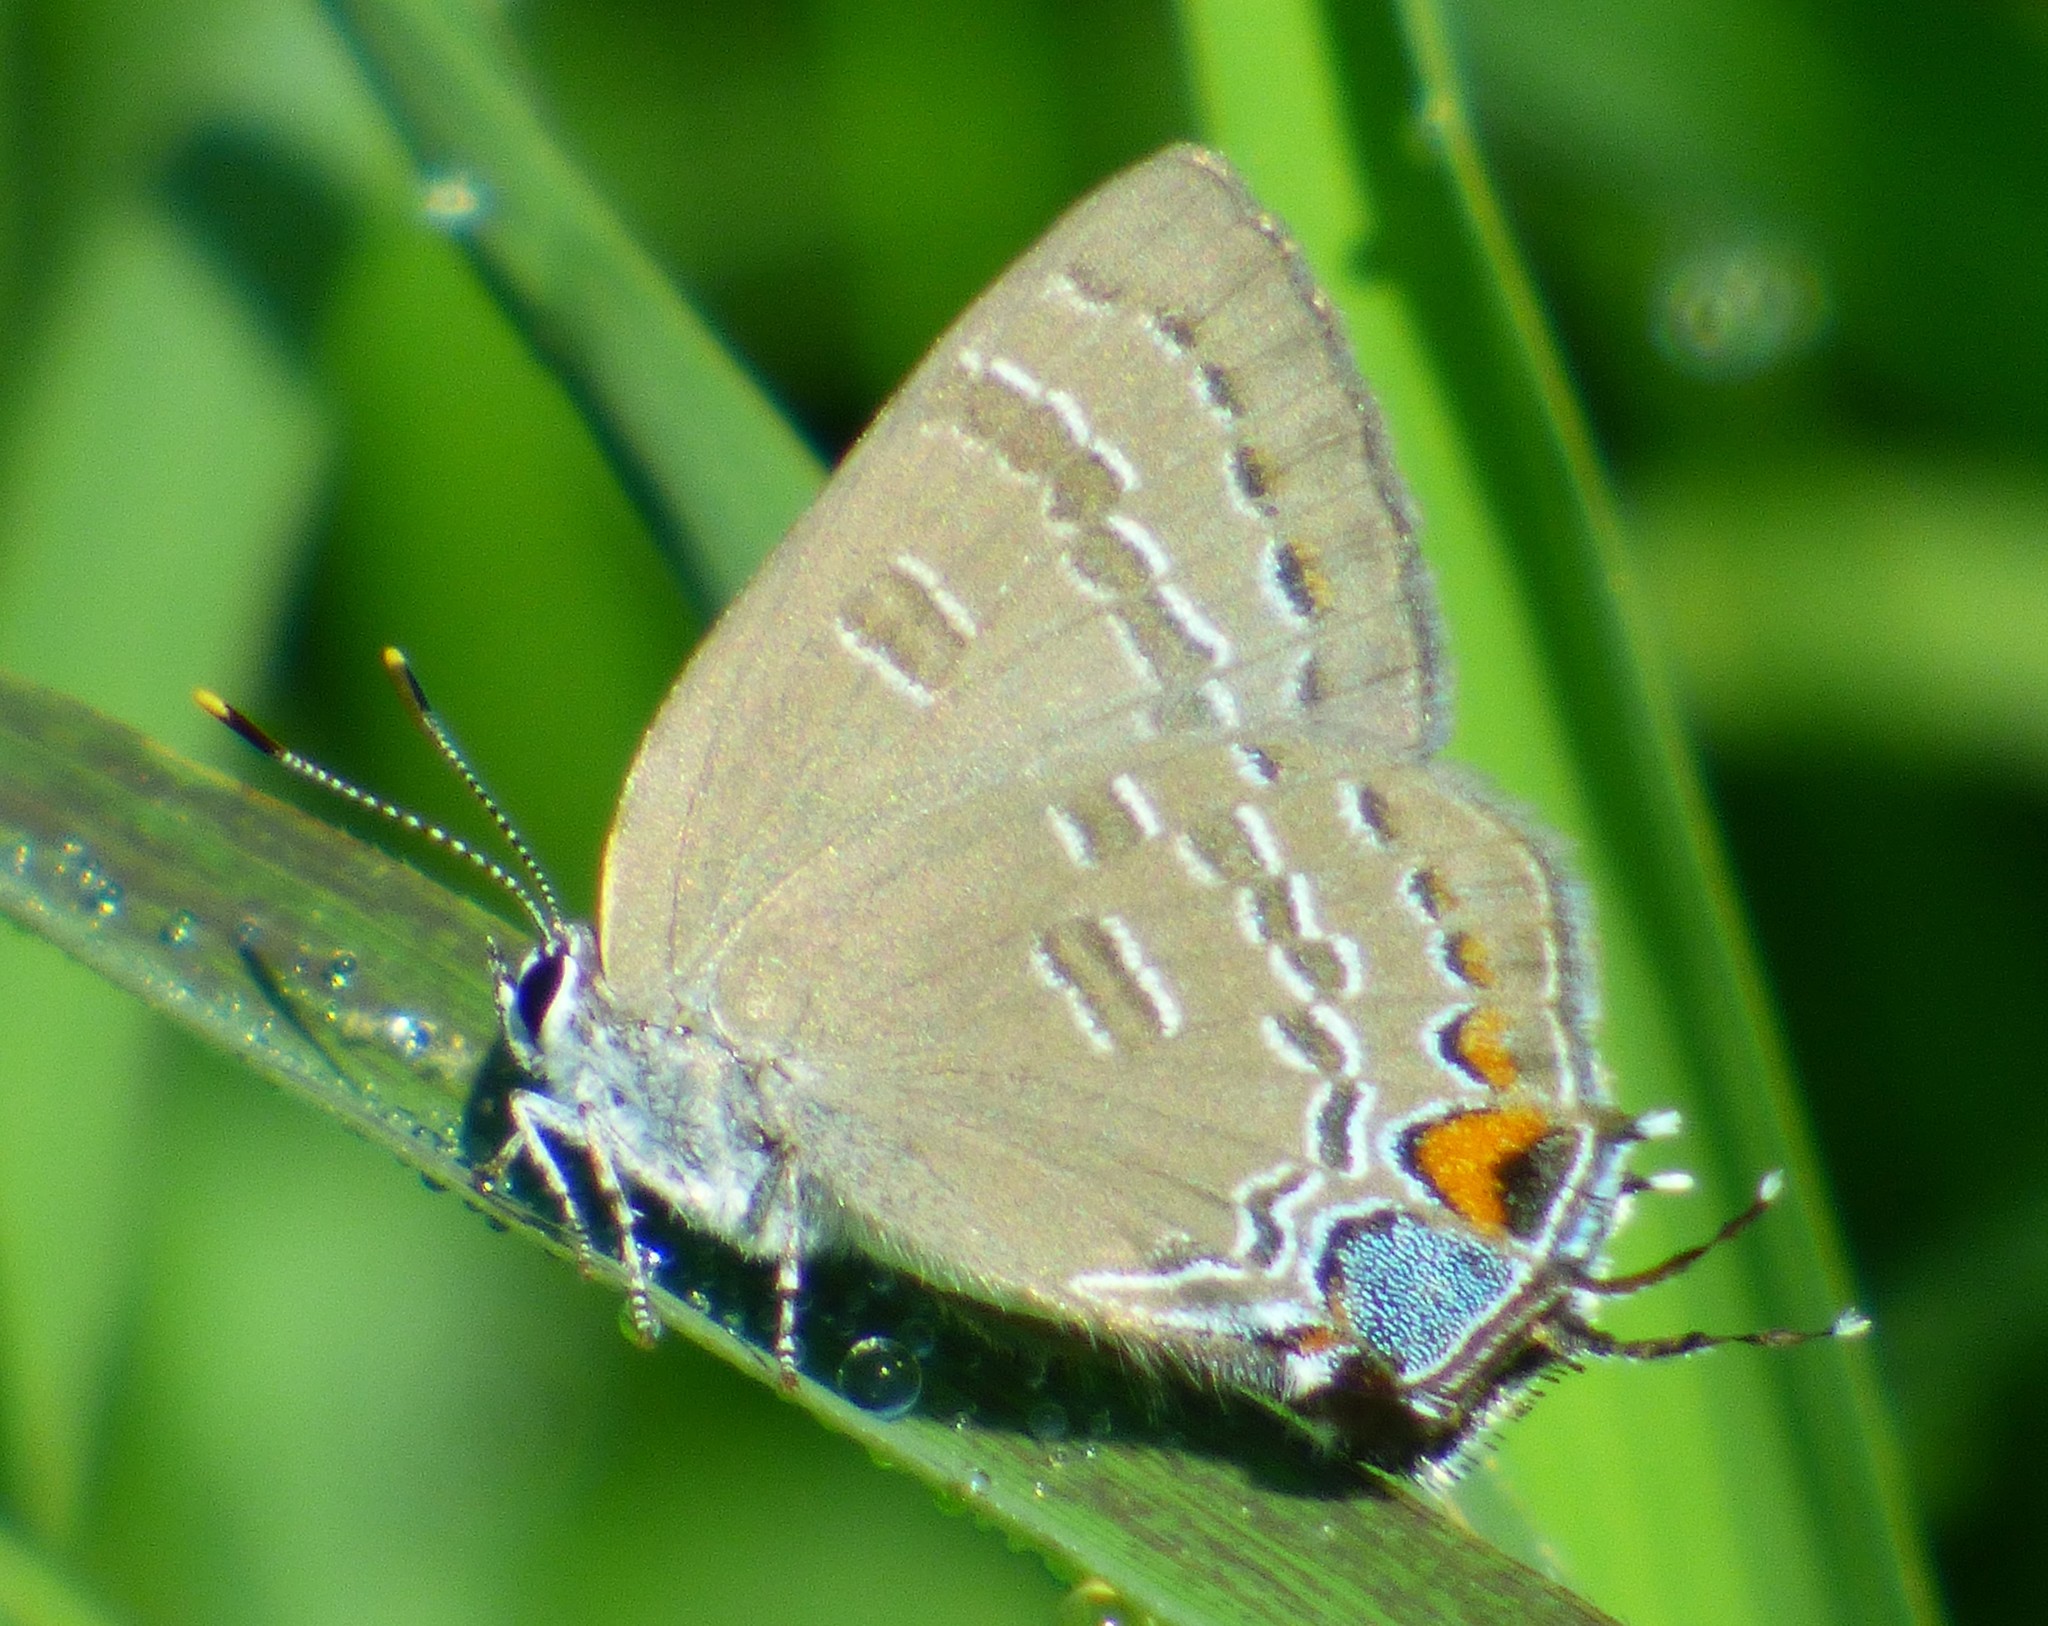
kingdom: Animalia
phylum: Arthropoda
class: Insecta
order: Lepidoptera
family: Lycaenidae
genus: Satyrium
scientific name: Satyrium calanus
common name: Banded hairstreak
